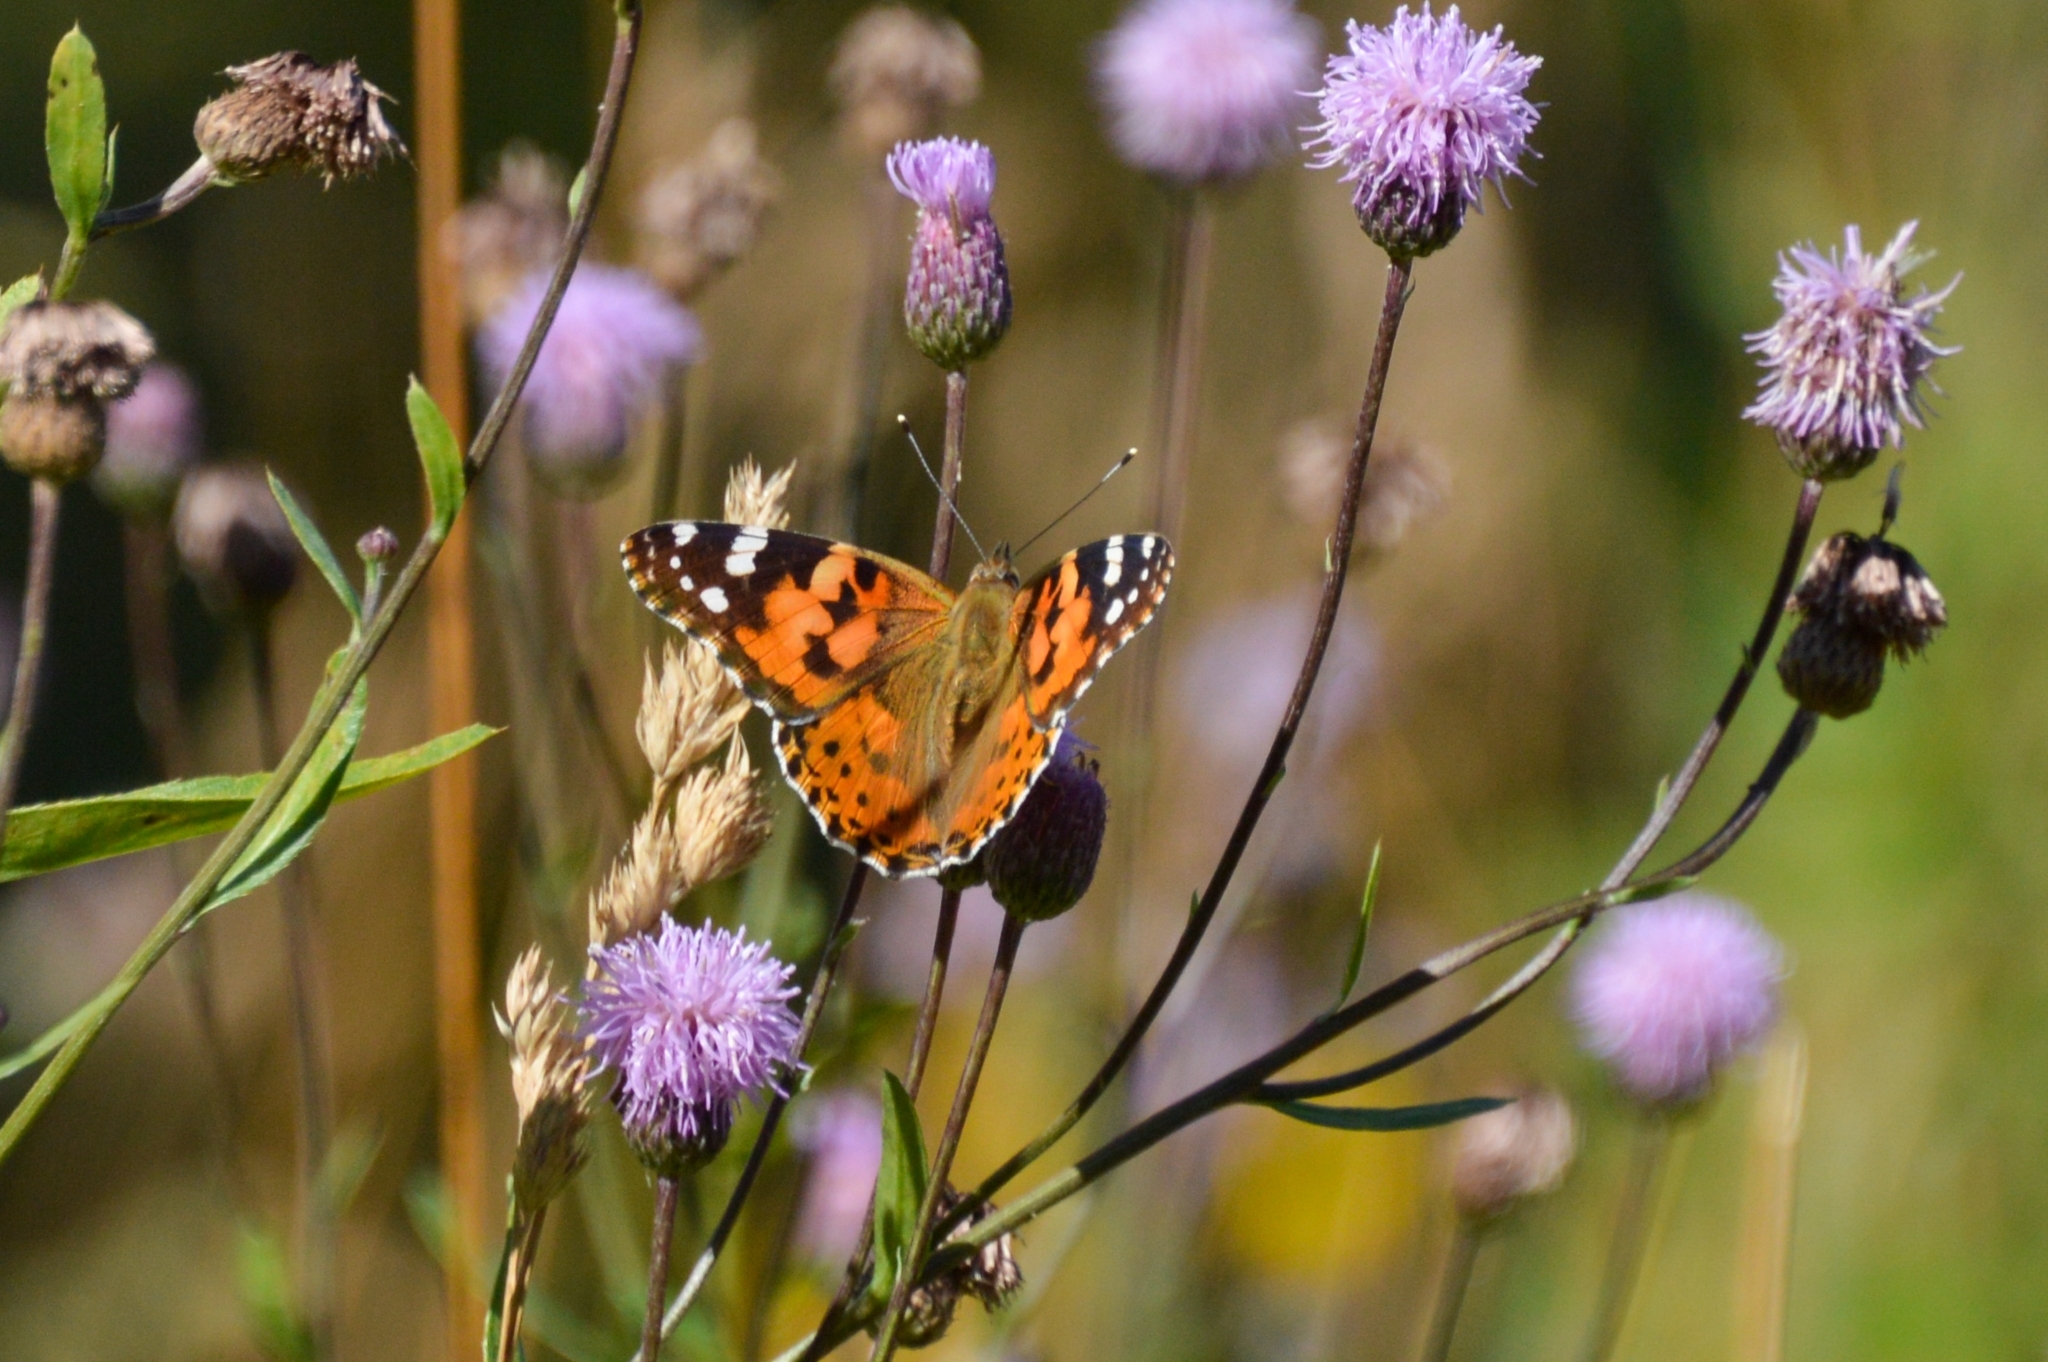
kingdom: Animalia
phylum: Arthropoda
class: Insecta
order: Lepidoptera
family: Nymphalidae
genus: Vanessa
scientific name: Vanessa cardui
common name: Painted lady
